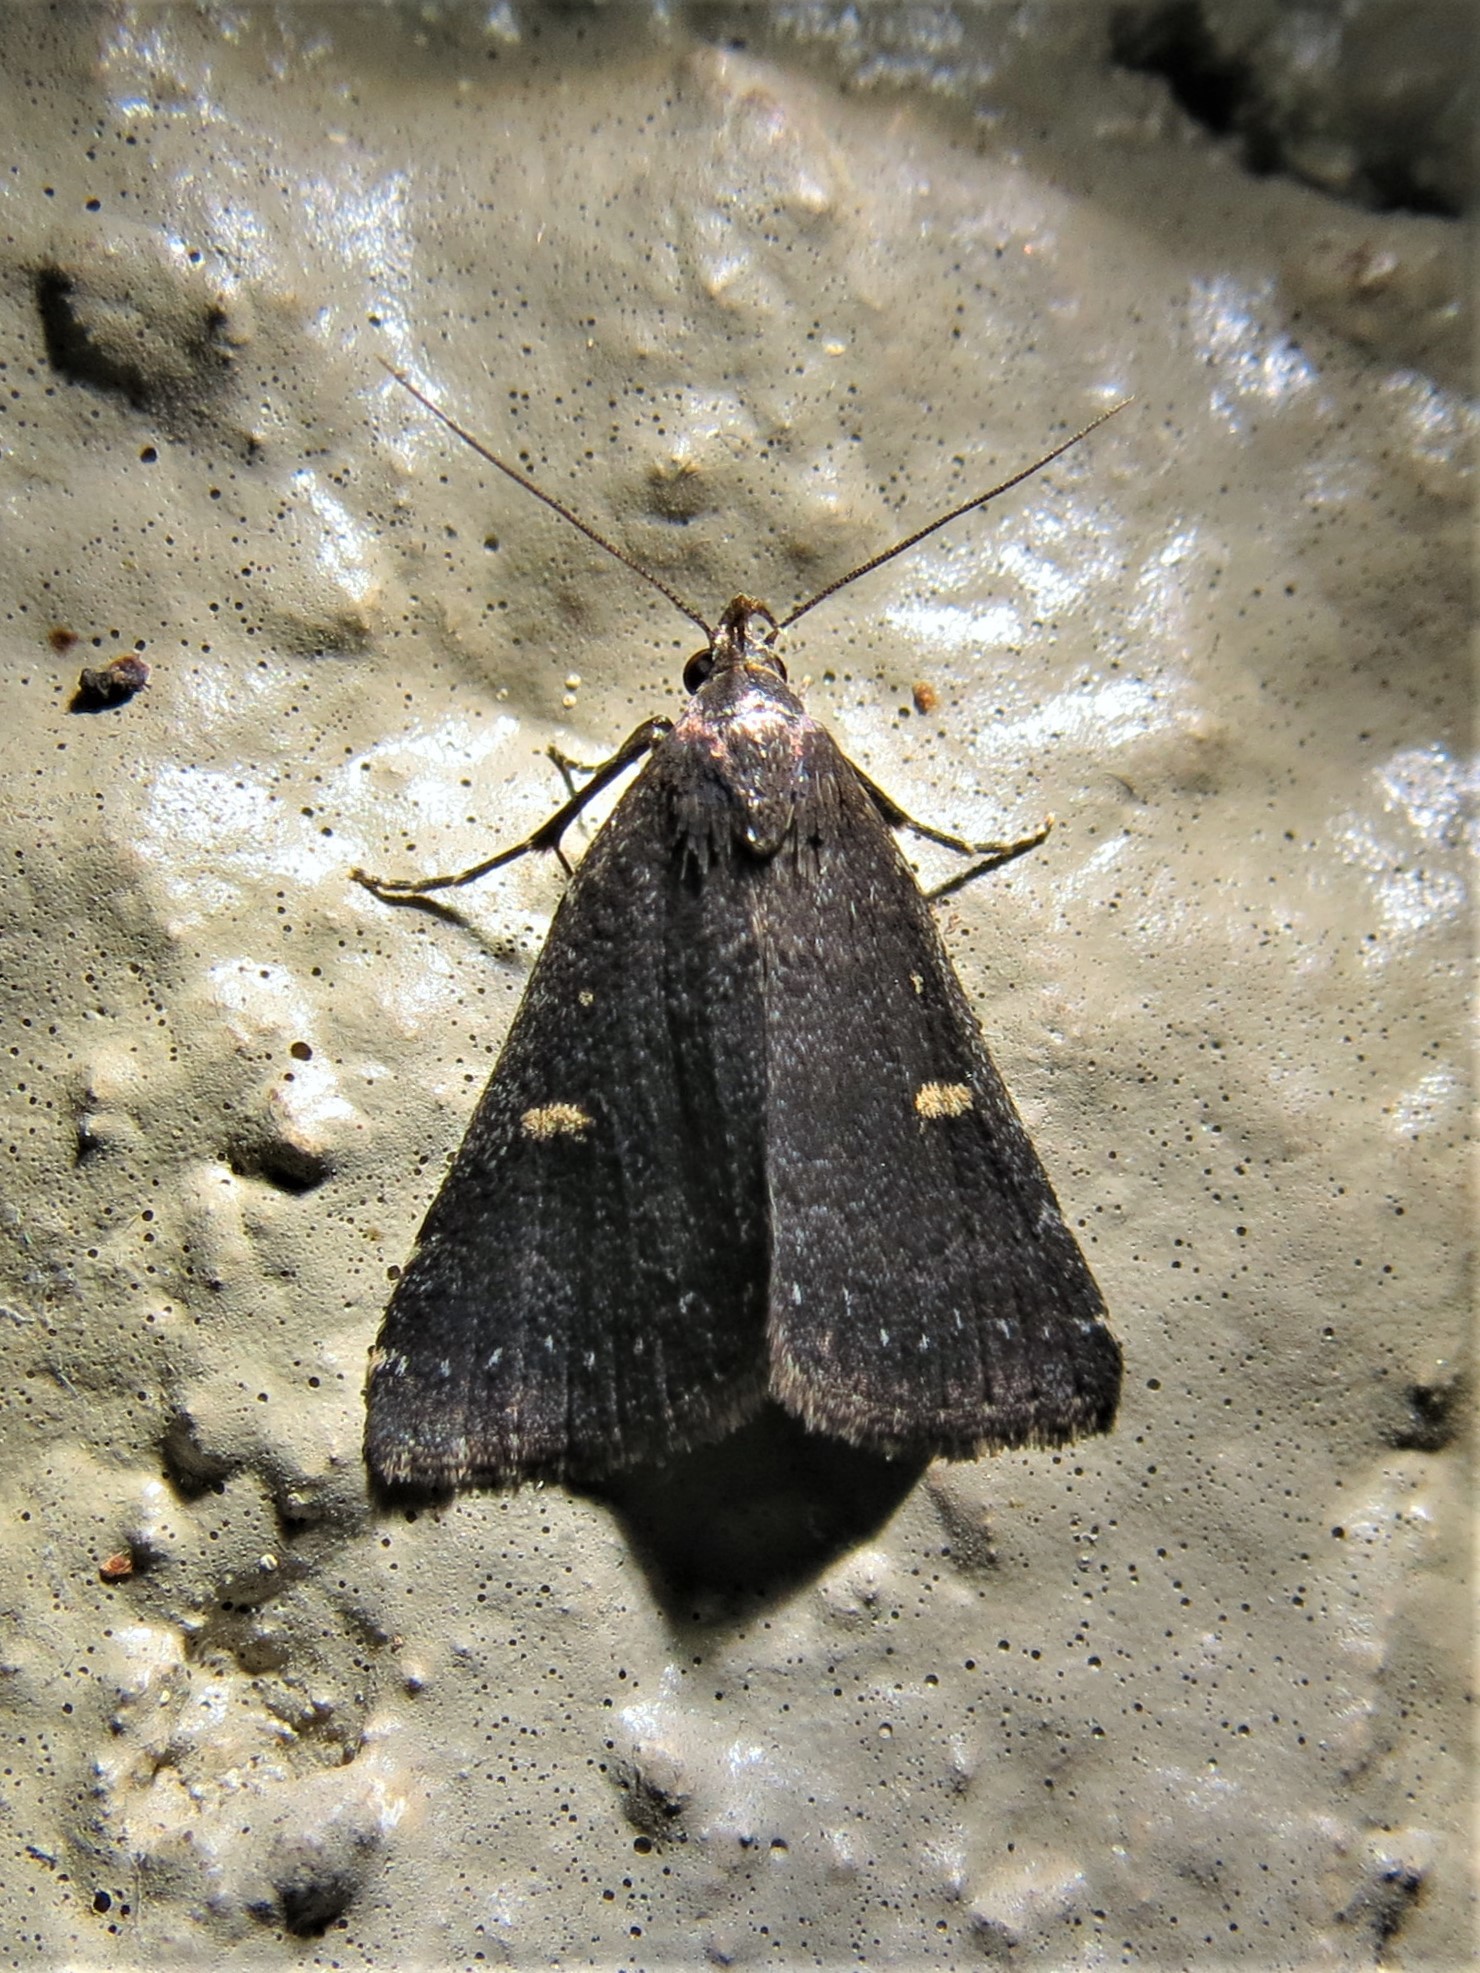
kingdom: Animalia
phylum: Arthropoda
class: Insecta
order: Lepidoptera
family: Erebidae
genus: Tetanolita
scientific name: Tetanolita mynesalis
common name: Smoky tetanolita moth
